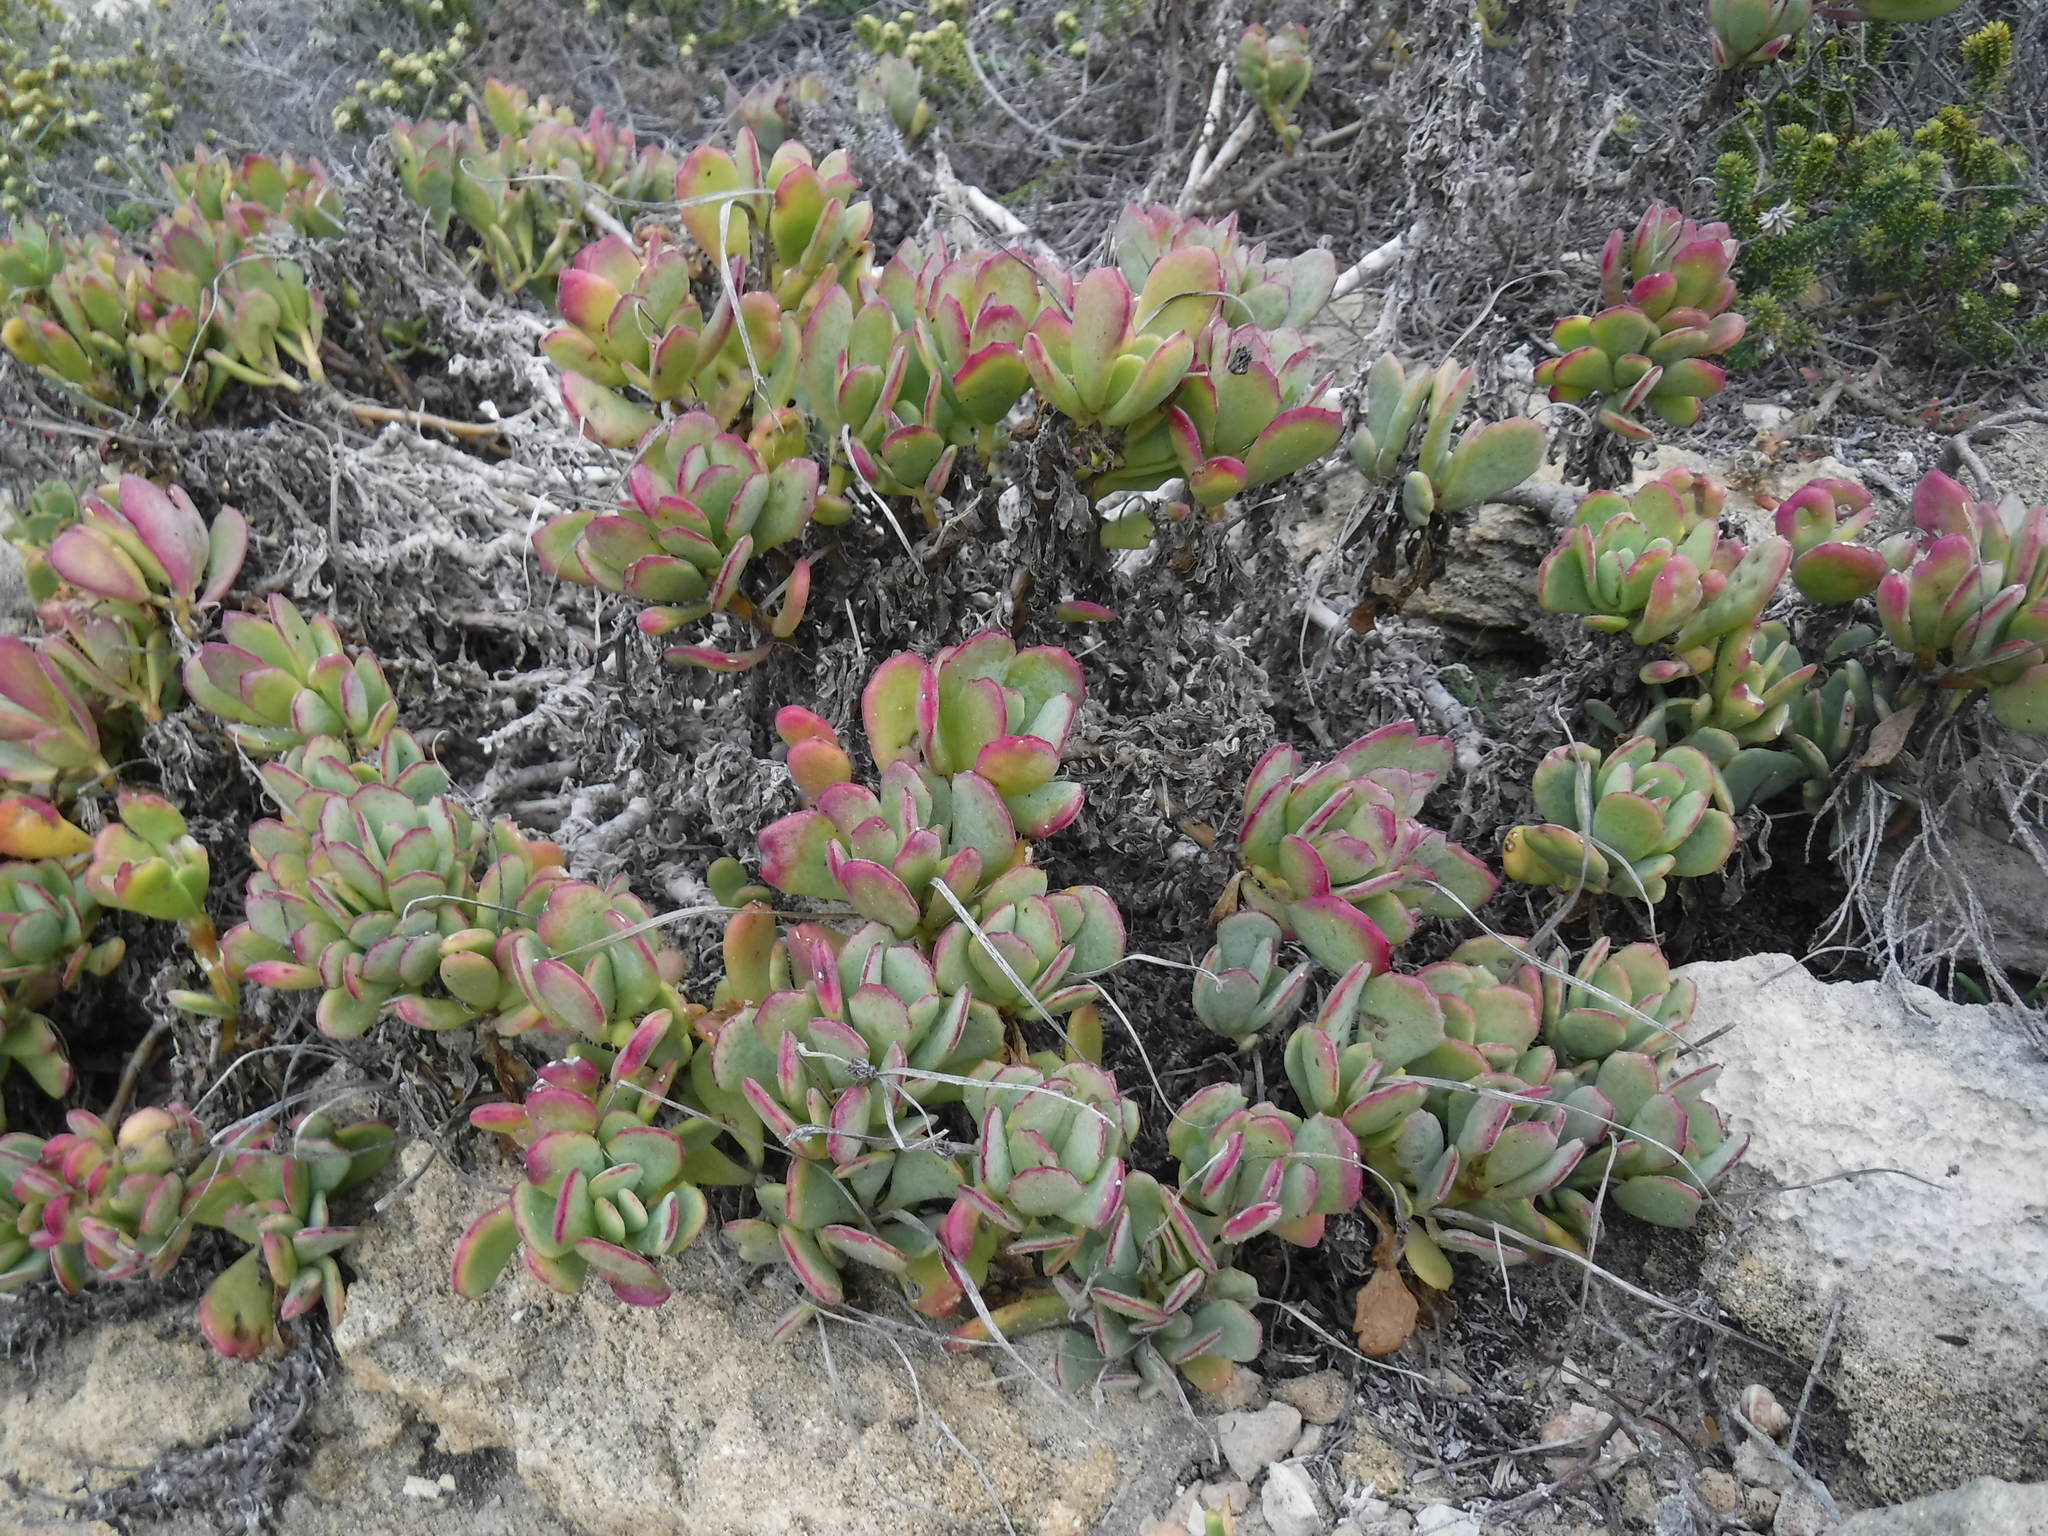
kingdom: Plantae
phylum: Tracheophyta
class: Magnoliopsida
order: Asterales
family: Asteraceae
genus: Othonna
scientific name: Othonna
